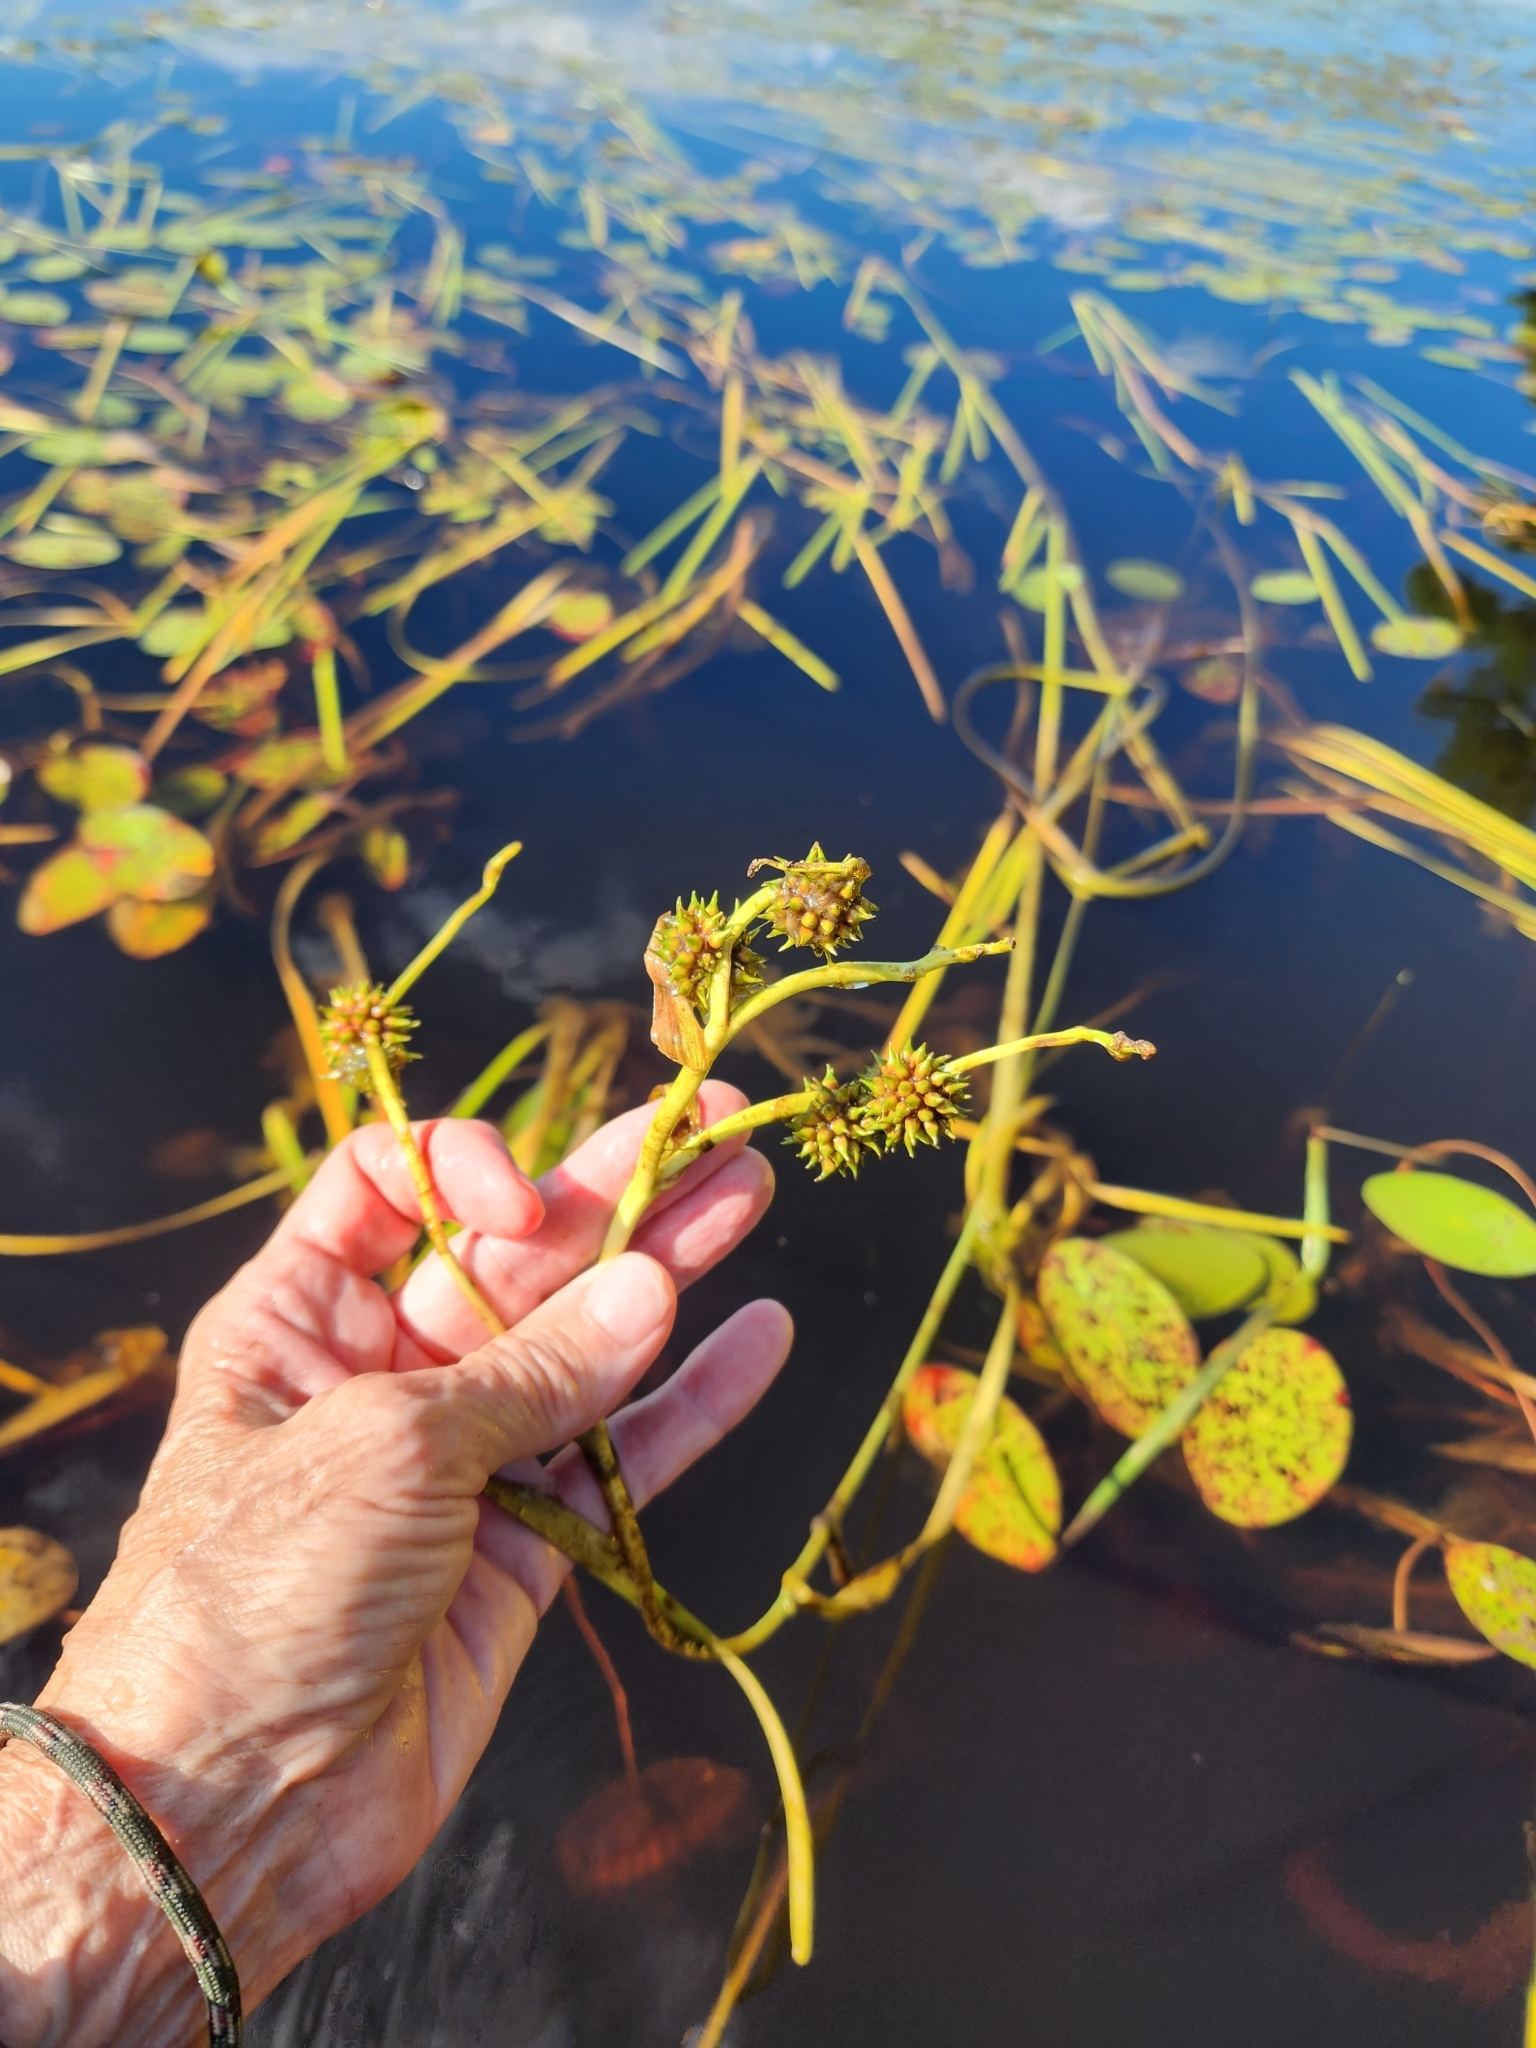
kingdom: Plantae
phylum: Tracheophyta
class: Liliopsida
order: Poales
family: Typhaceae
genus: Sparganium
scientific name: Sparganium fluctuans
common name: Floating burreed
